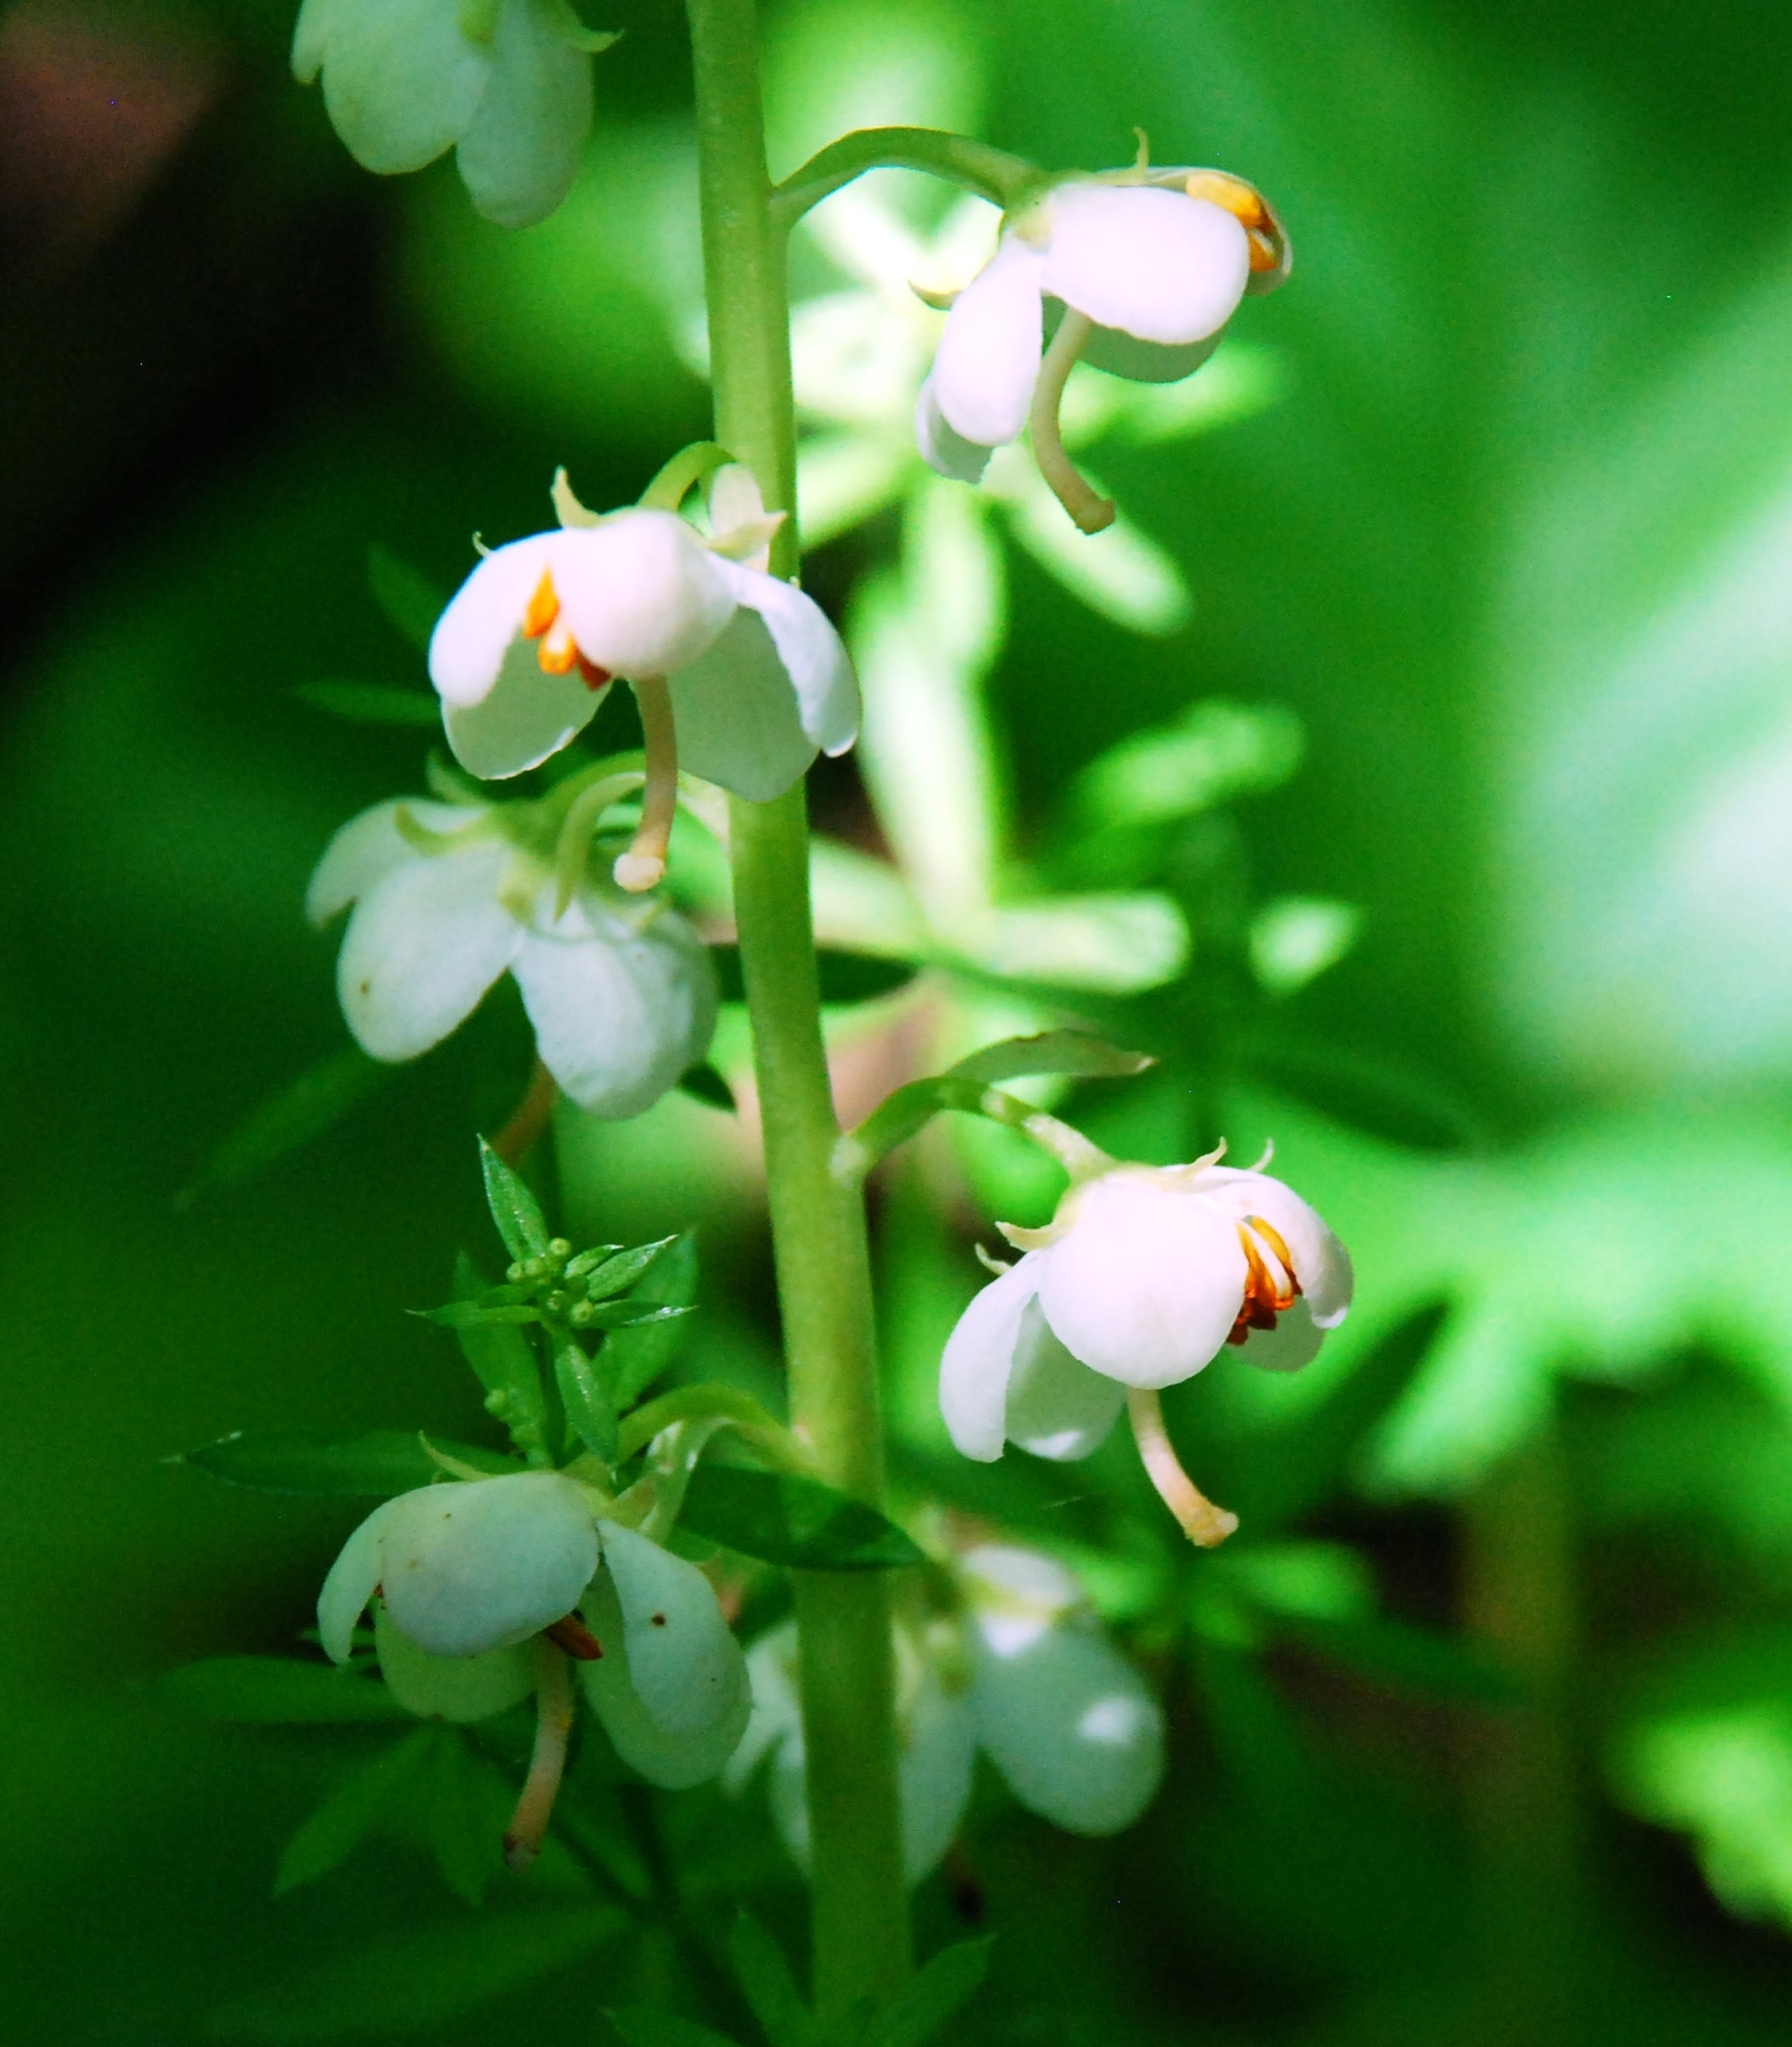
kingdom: Plantae
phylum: Tracheophyta
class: Magnoliopsida
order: Ericales
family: Ericaceae
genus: Pyrola
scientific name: Pyrola rotundifolia
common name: Round-leaved wintergreen
